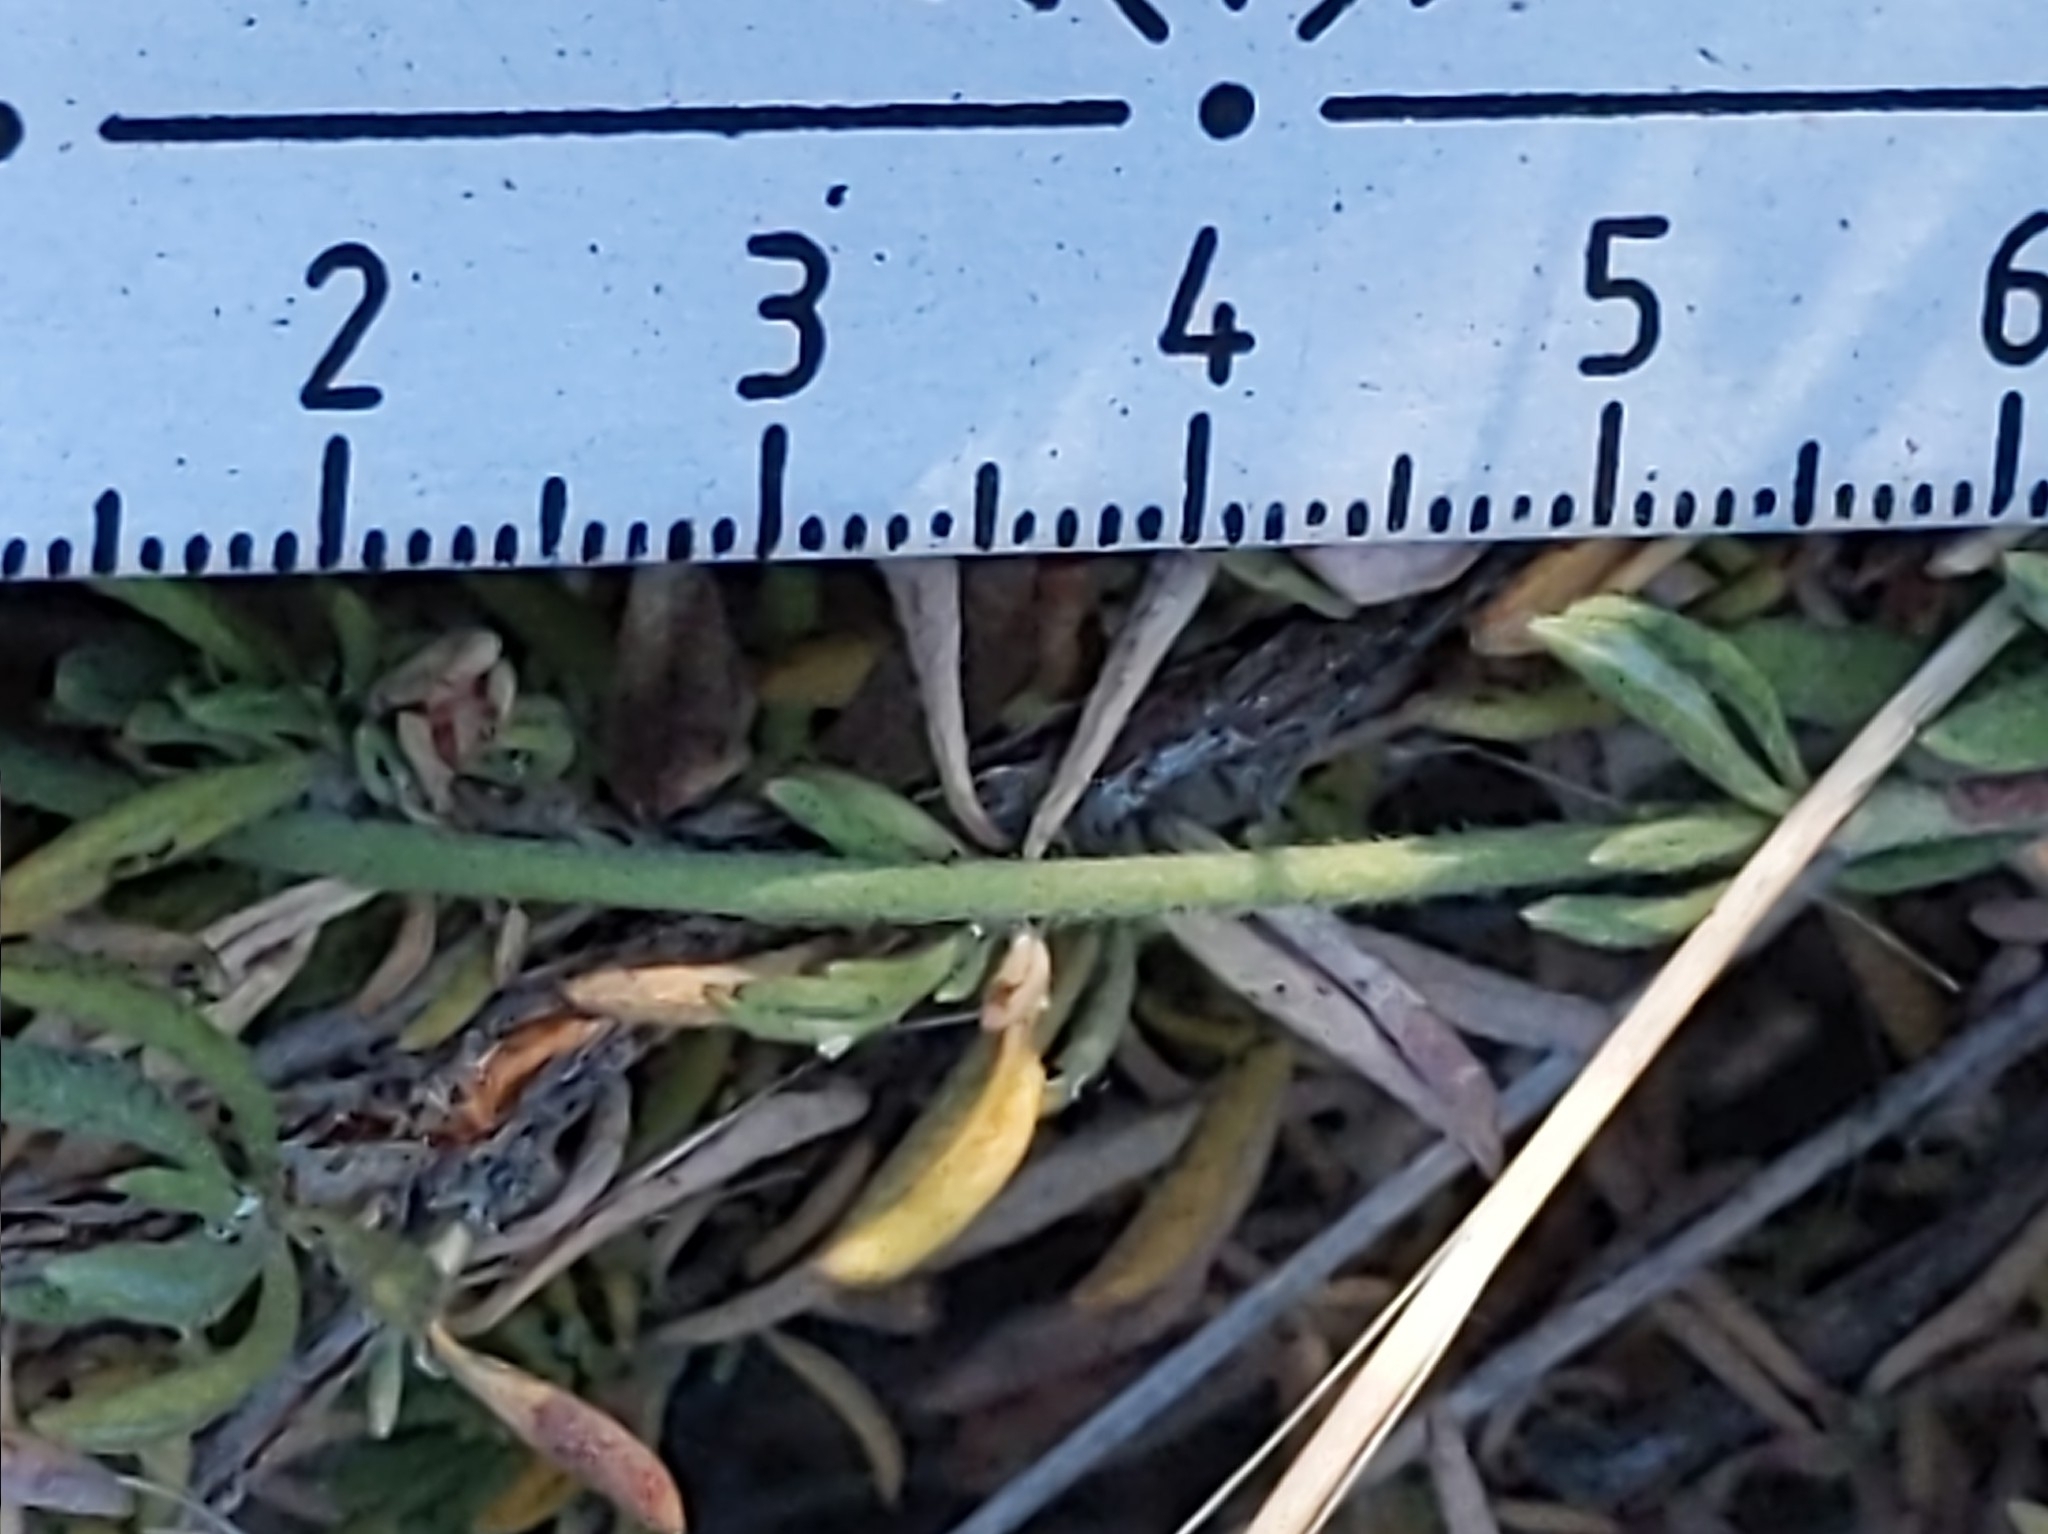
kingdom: Plantae
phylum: Tracheophyta
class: Magnoliopsida
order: Caryophyllales
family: Polygonaceae
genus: Eriogonum
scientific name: Eriogonum fasciculatum
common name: California wild buckwheat
